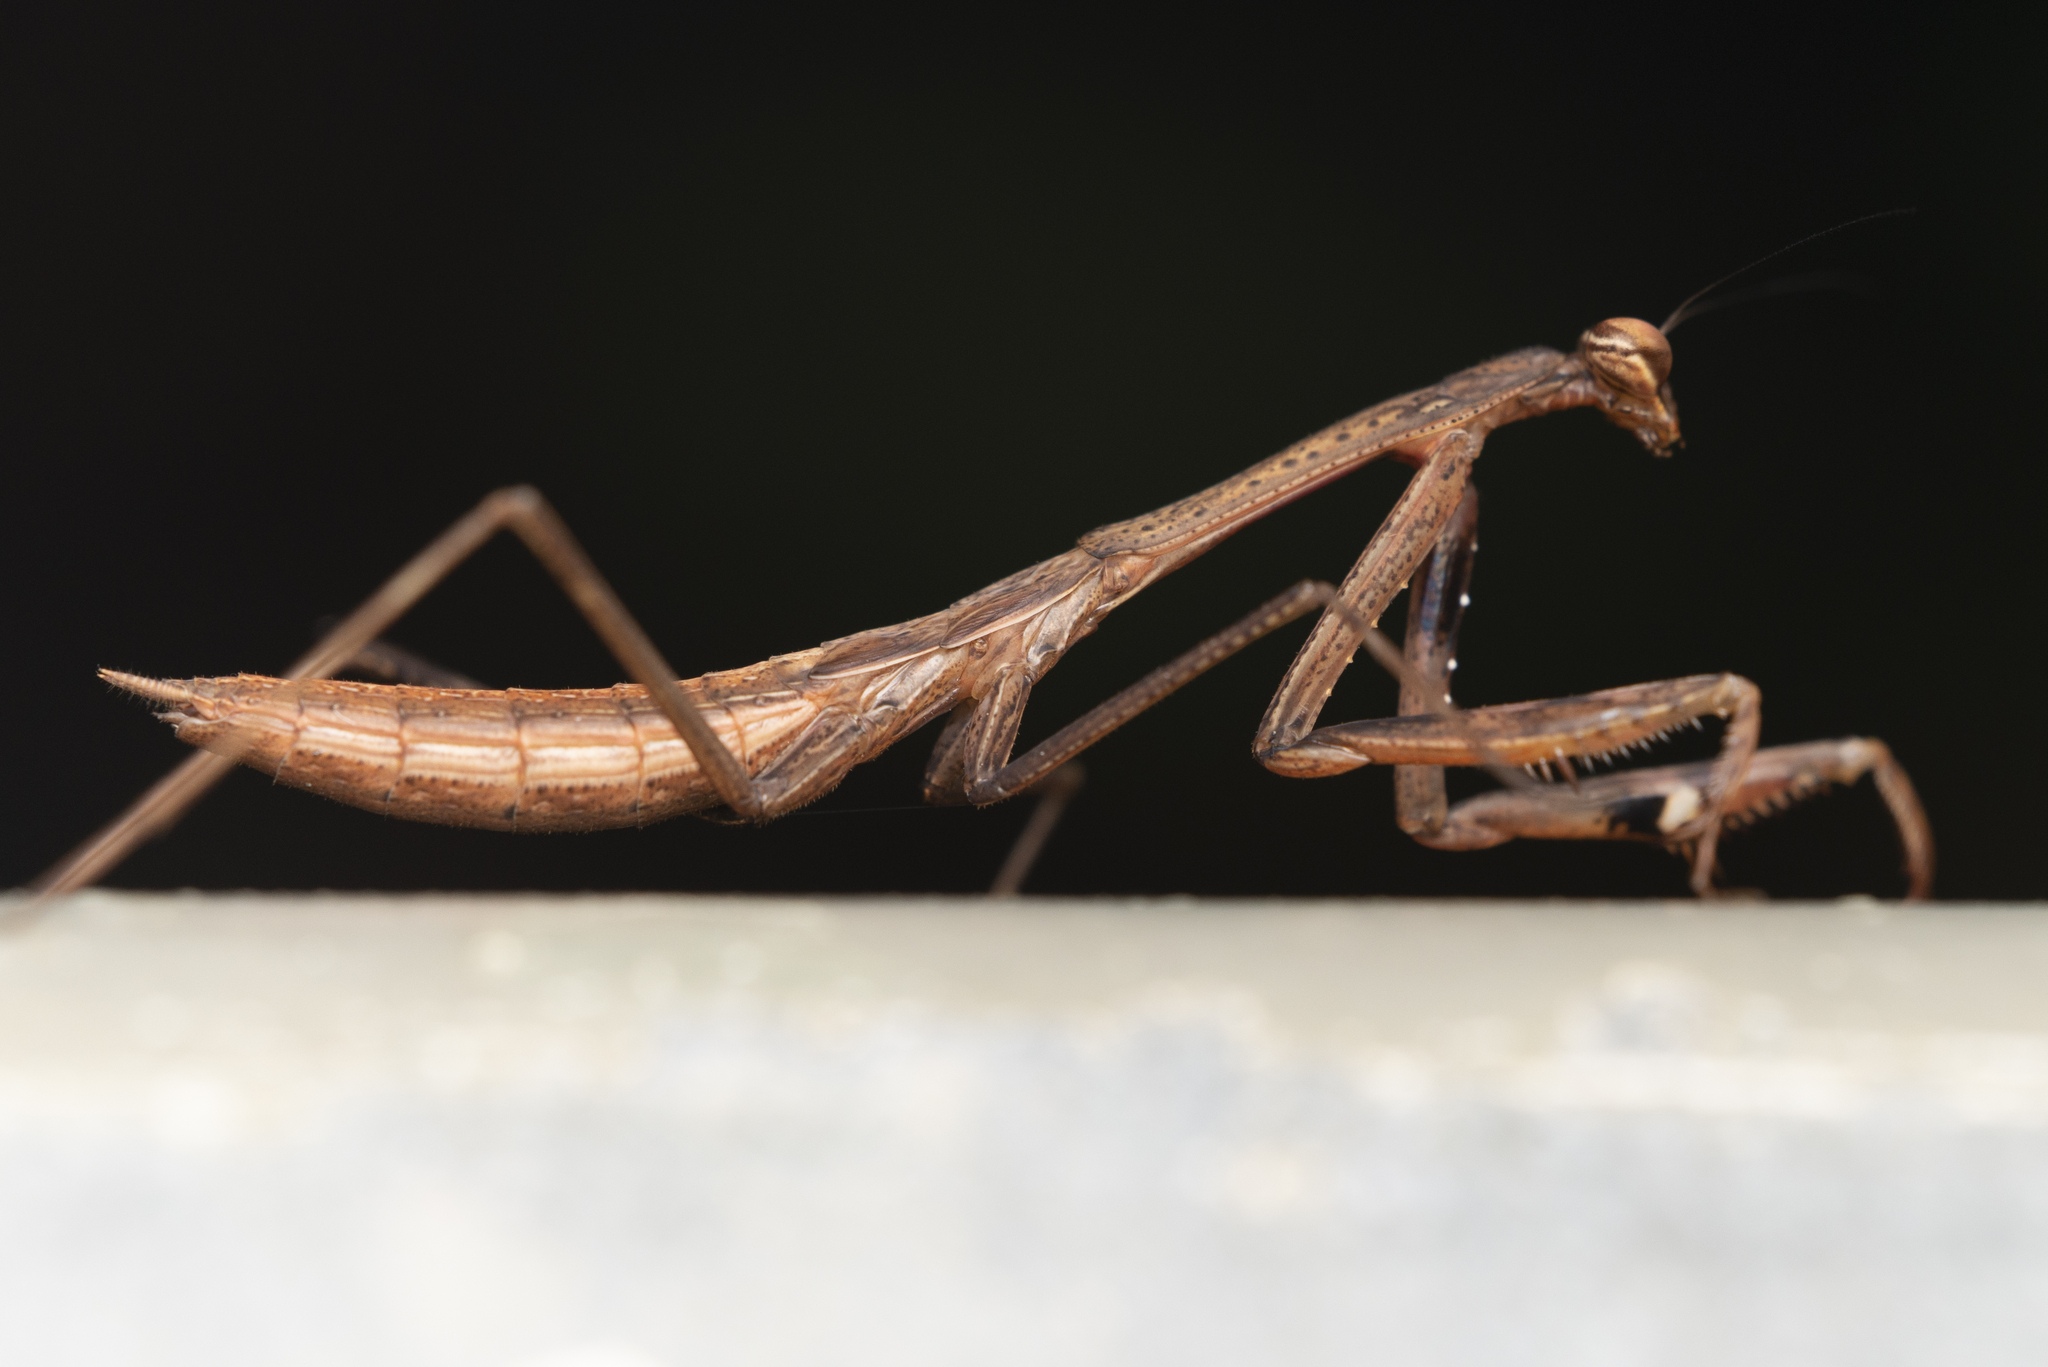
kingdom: Animalia
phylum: Arthropoda
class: Insecta
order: Mantodea
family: Mantidae
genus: Statilia
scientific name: Statilia maculata
